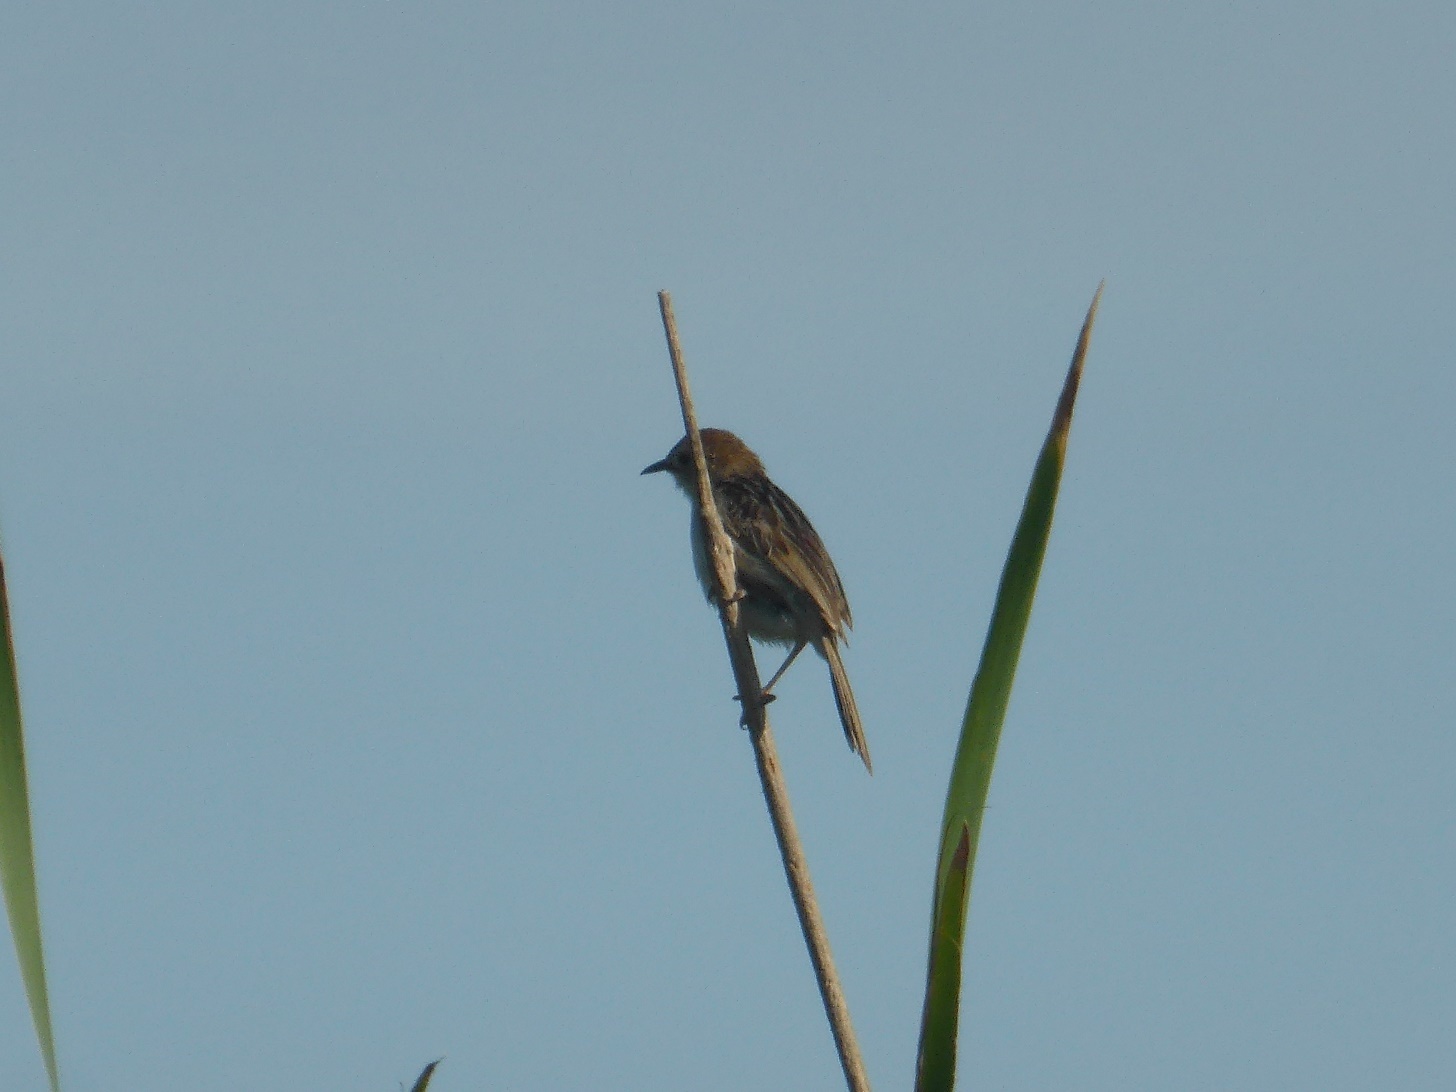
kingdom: Animalia
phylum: Chordata
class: Aves
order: Passeriformes
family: Cisticolidae
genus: Cisticola
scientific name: Cisticola tinniens
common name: Levaillant's cisticola
